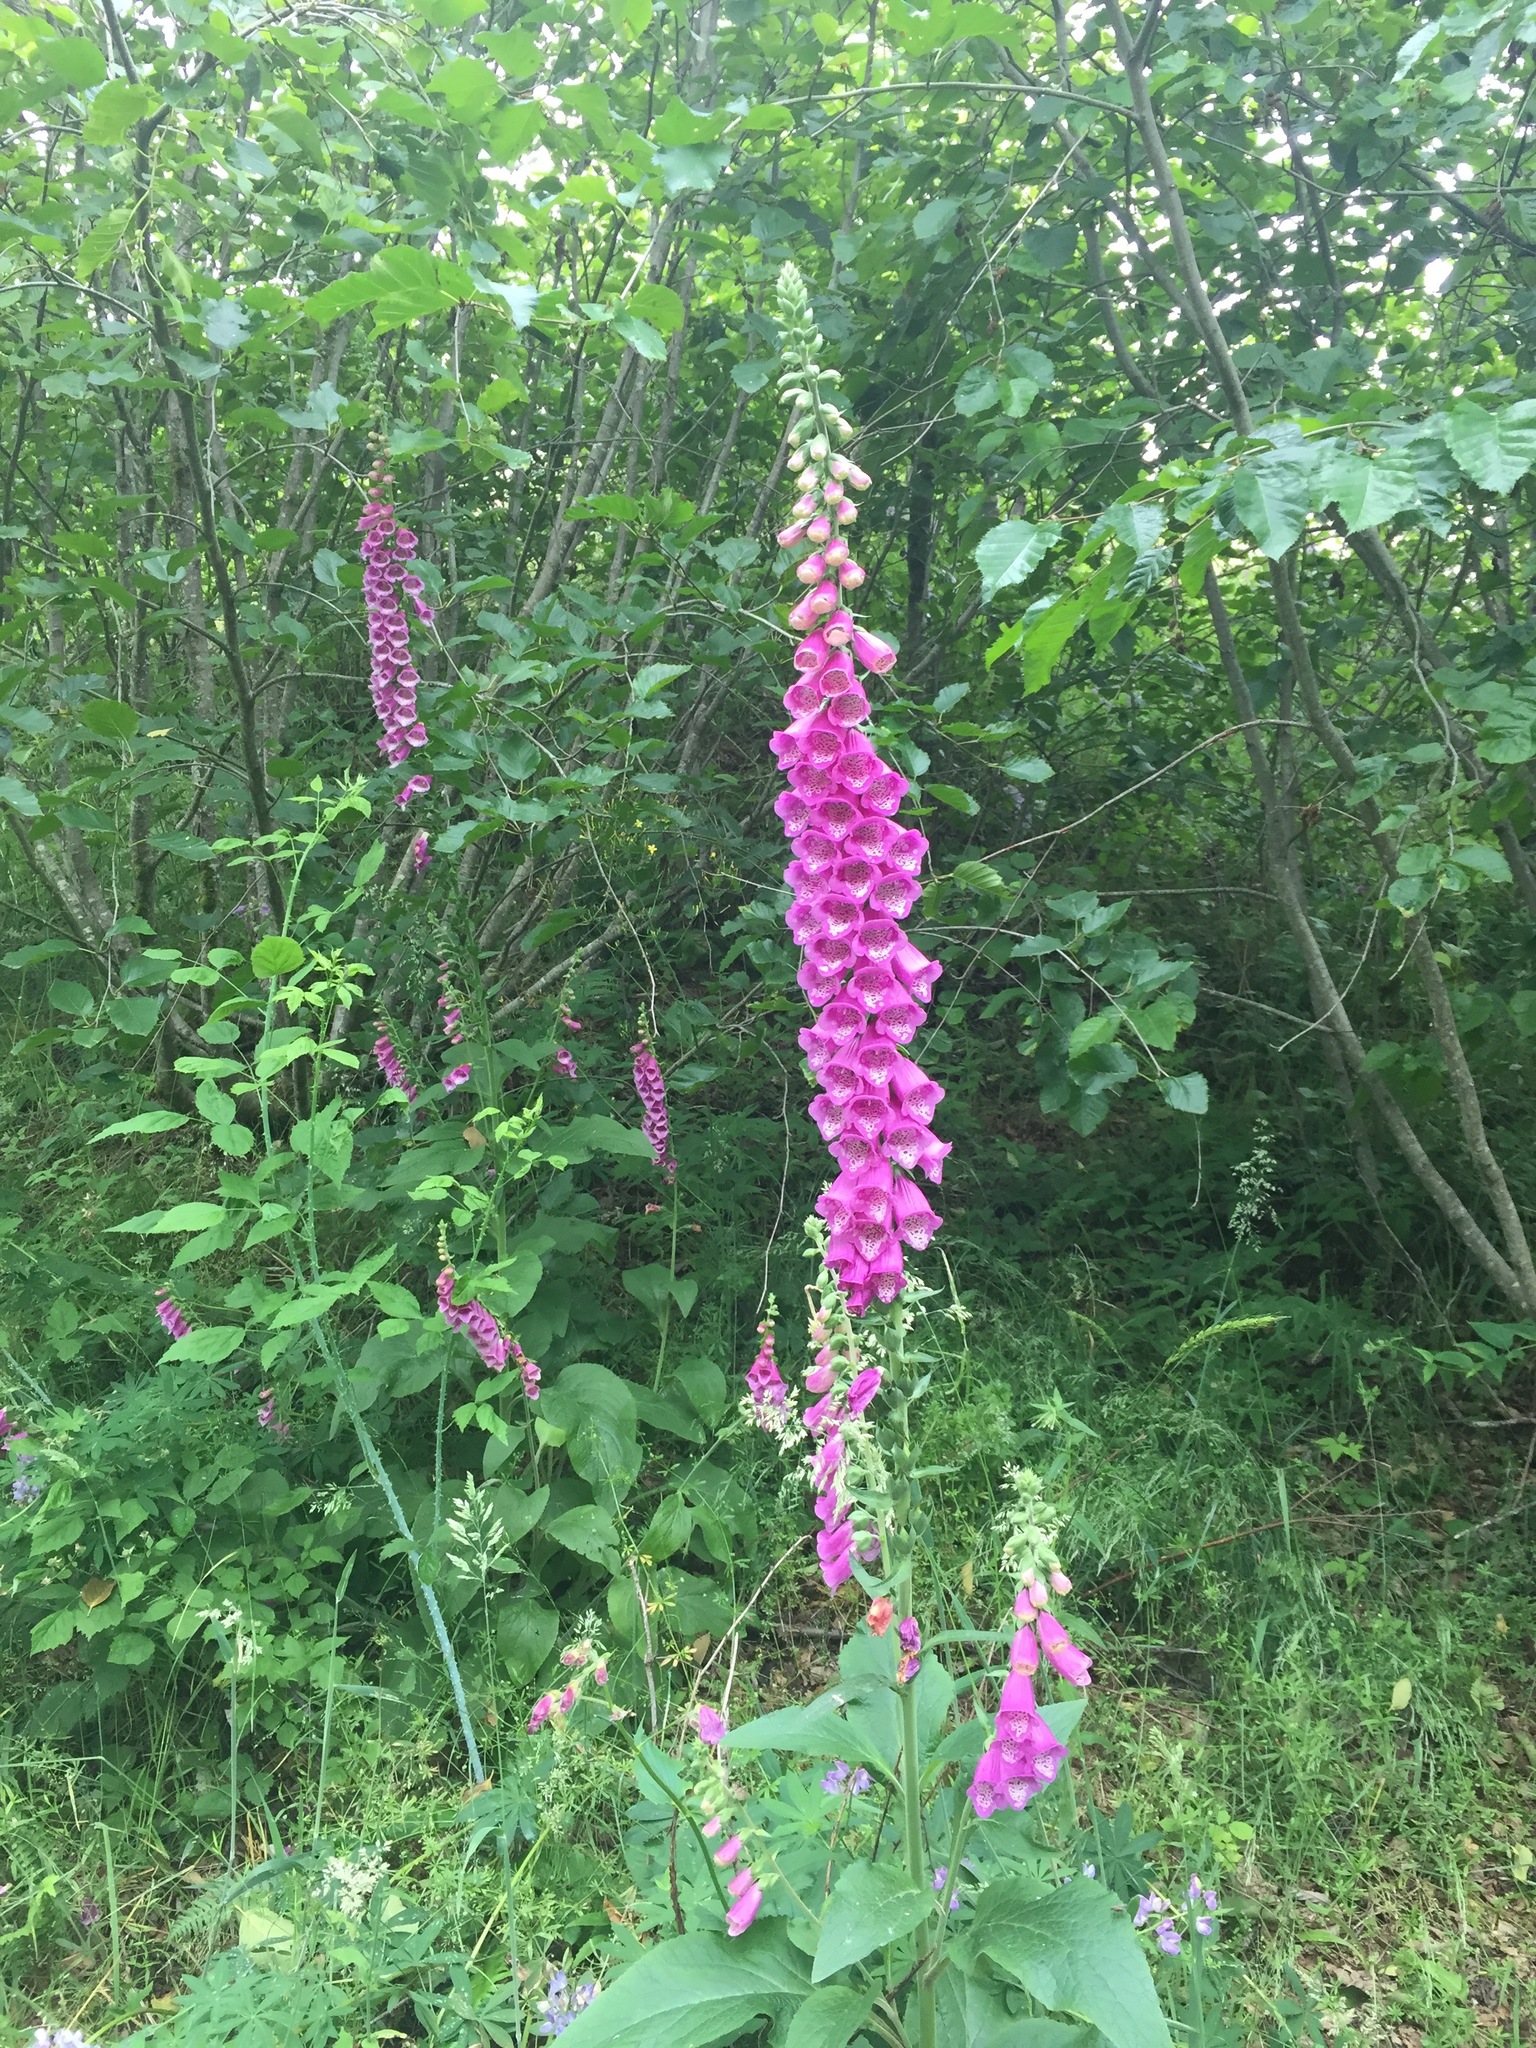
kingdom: Plantae
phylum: Tracheophyta
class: Magnoliopsida
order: Lamiales
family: Plantaginaceae
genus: Digitalis
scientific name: Digitalis purpurea
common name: Foxglove
